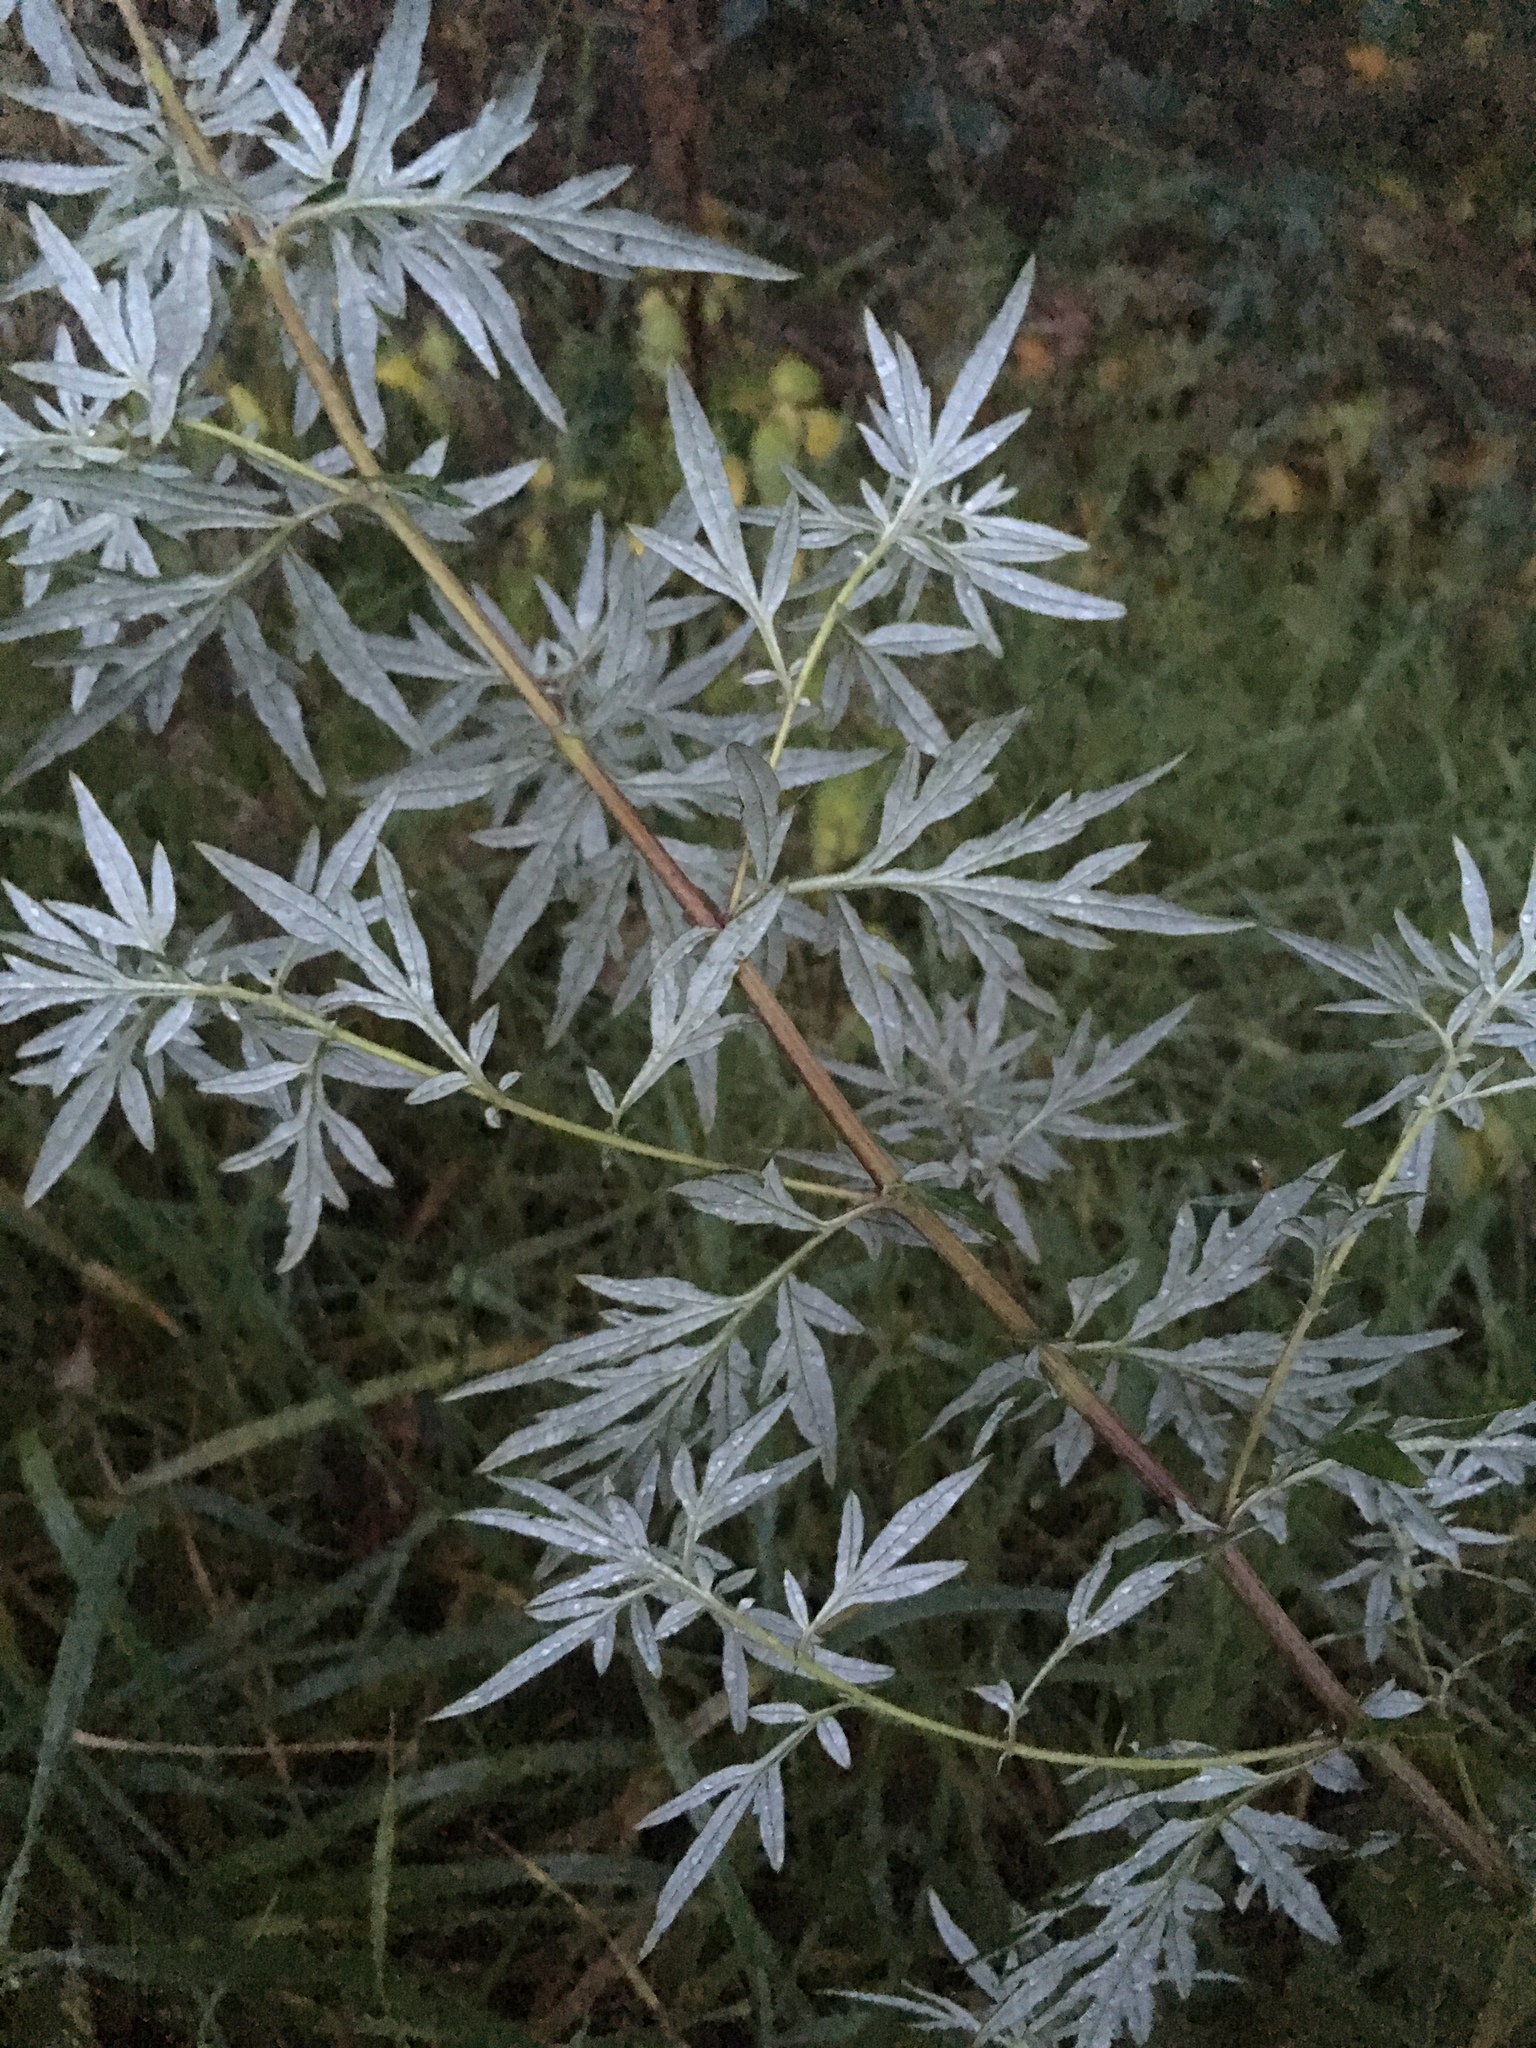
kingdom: Plantae
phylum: Tracheophyta
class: Magnoliopsida
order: Asterales
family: Asteraceae
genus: Artemisia
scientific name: Artemisia vulgaris
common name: Mugwort
